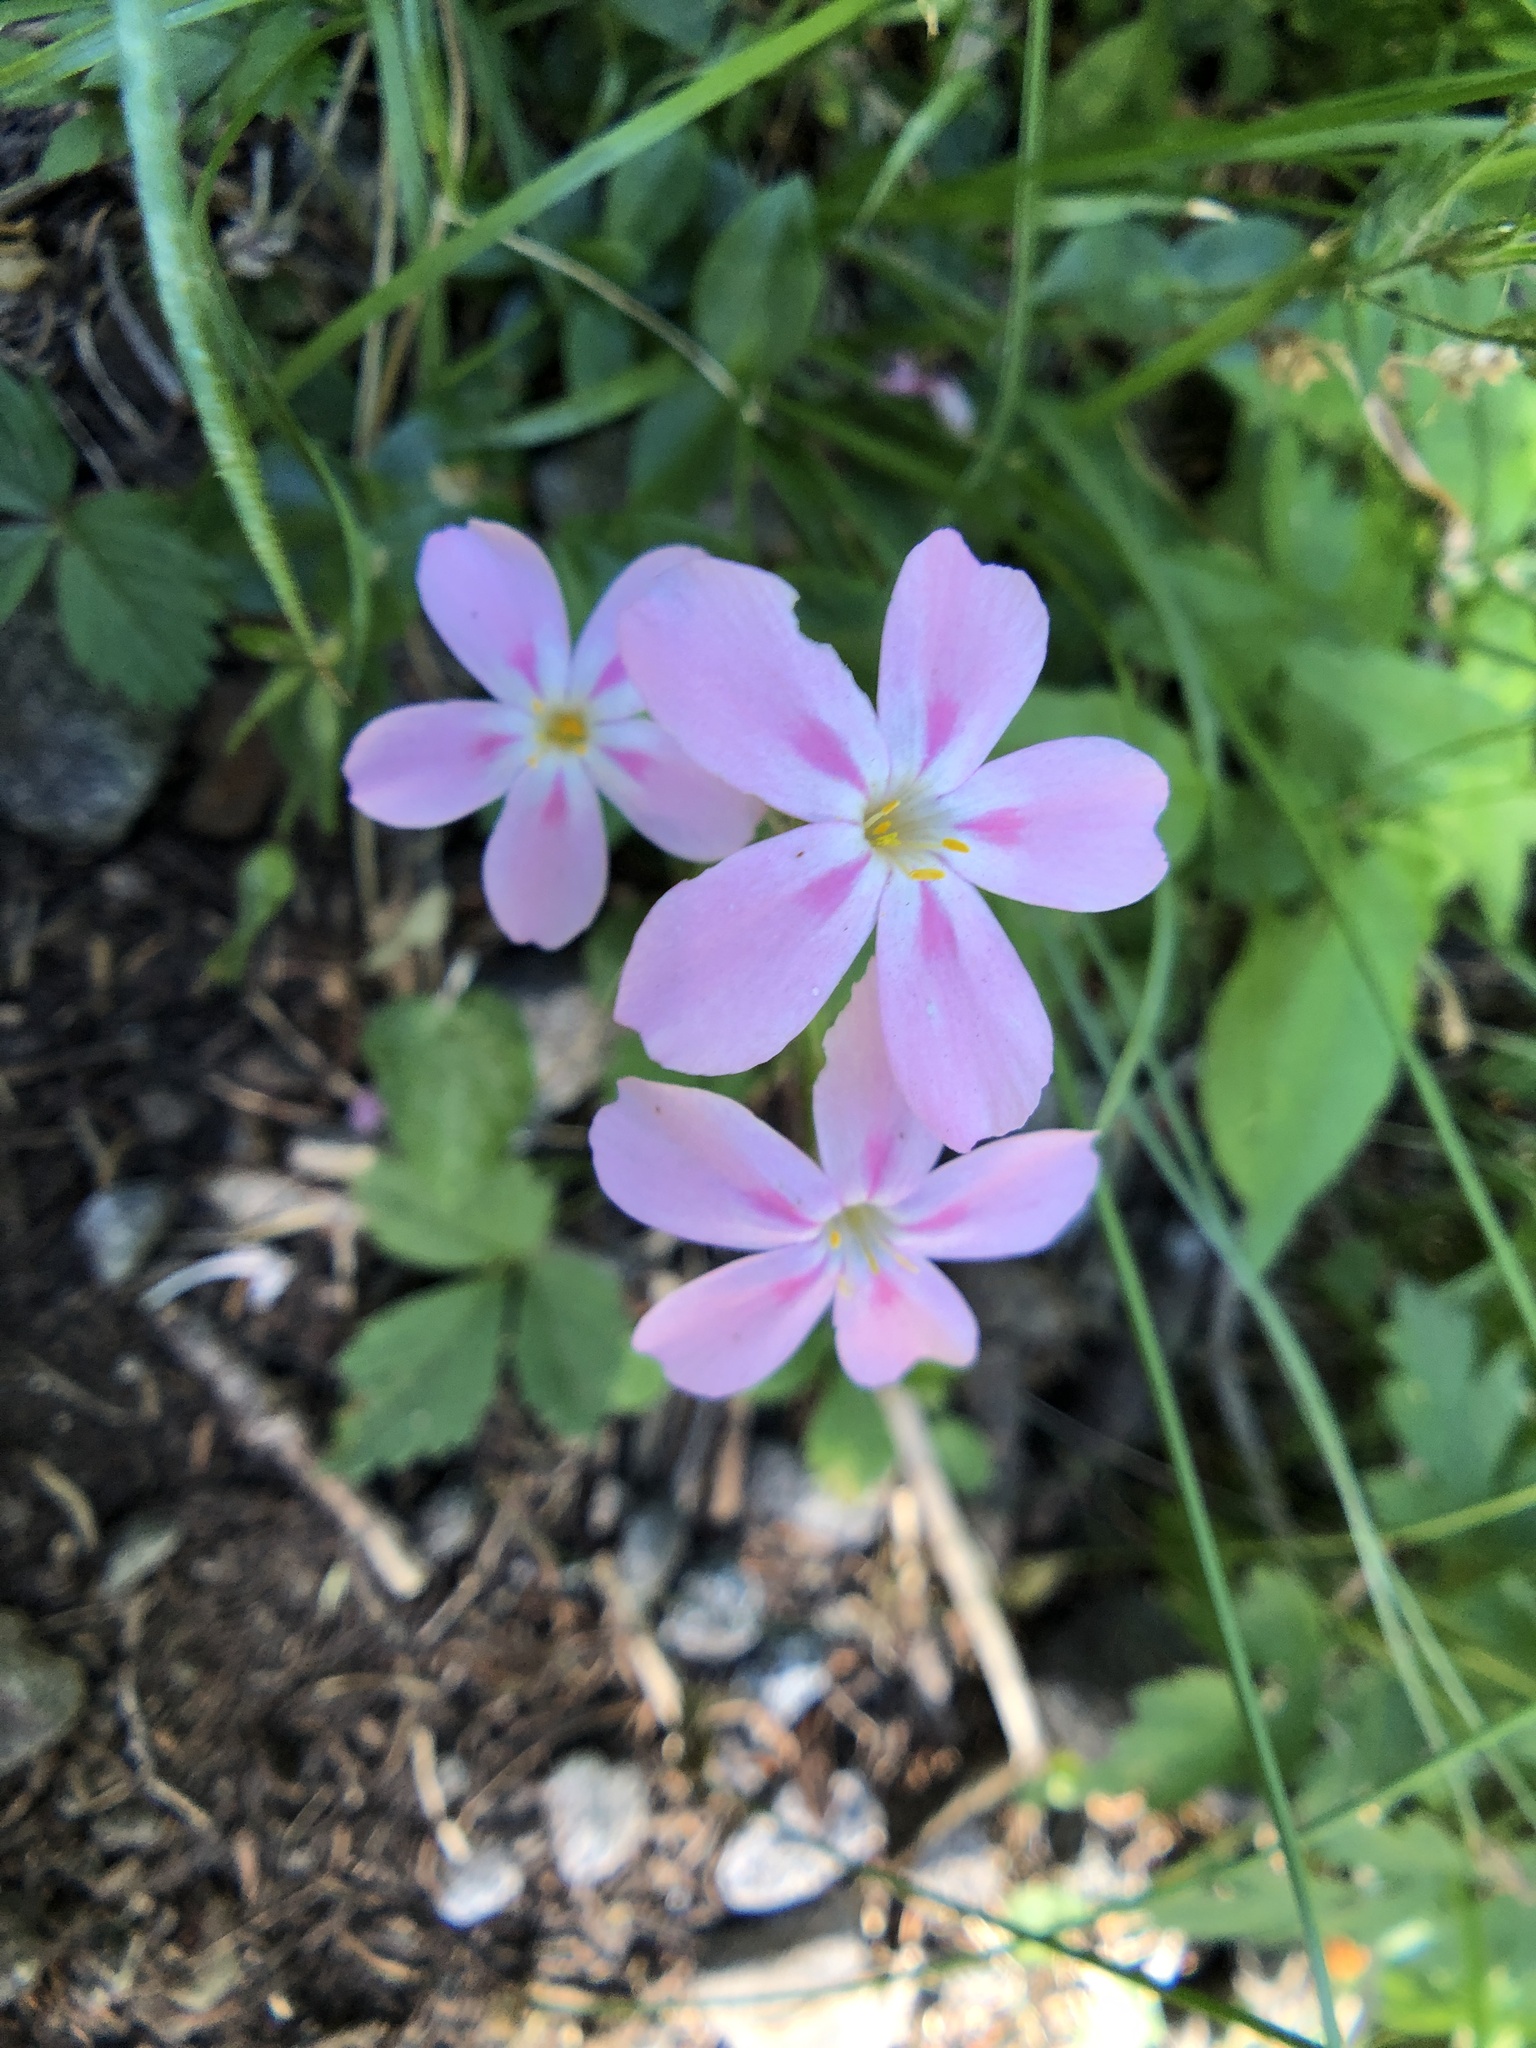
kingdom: Plantae
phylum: Tracheophyta
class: Magnoliopsida
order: Ericales
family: Polemoniaceae
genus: Phlox
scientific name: Phlox adsurgens
